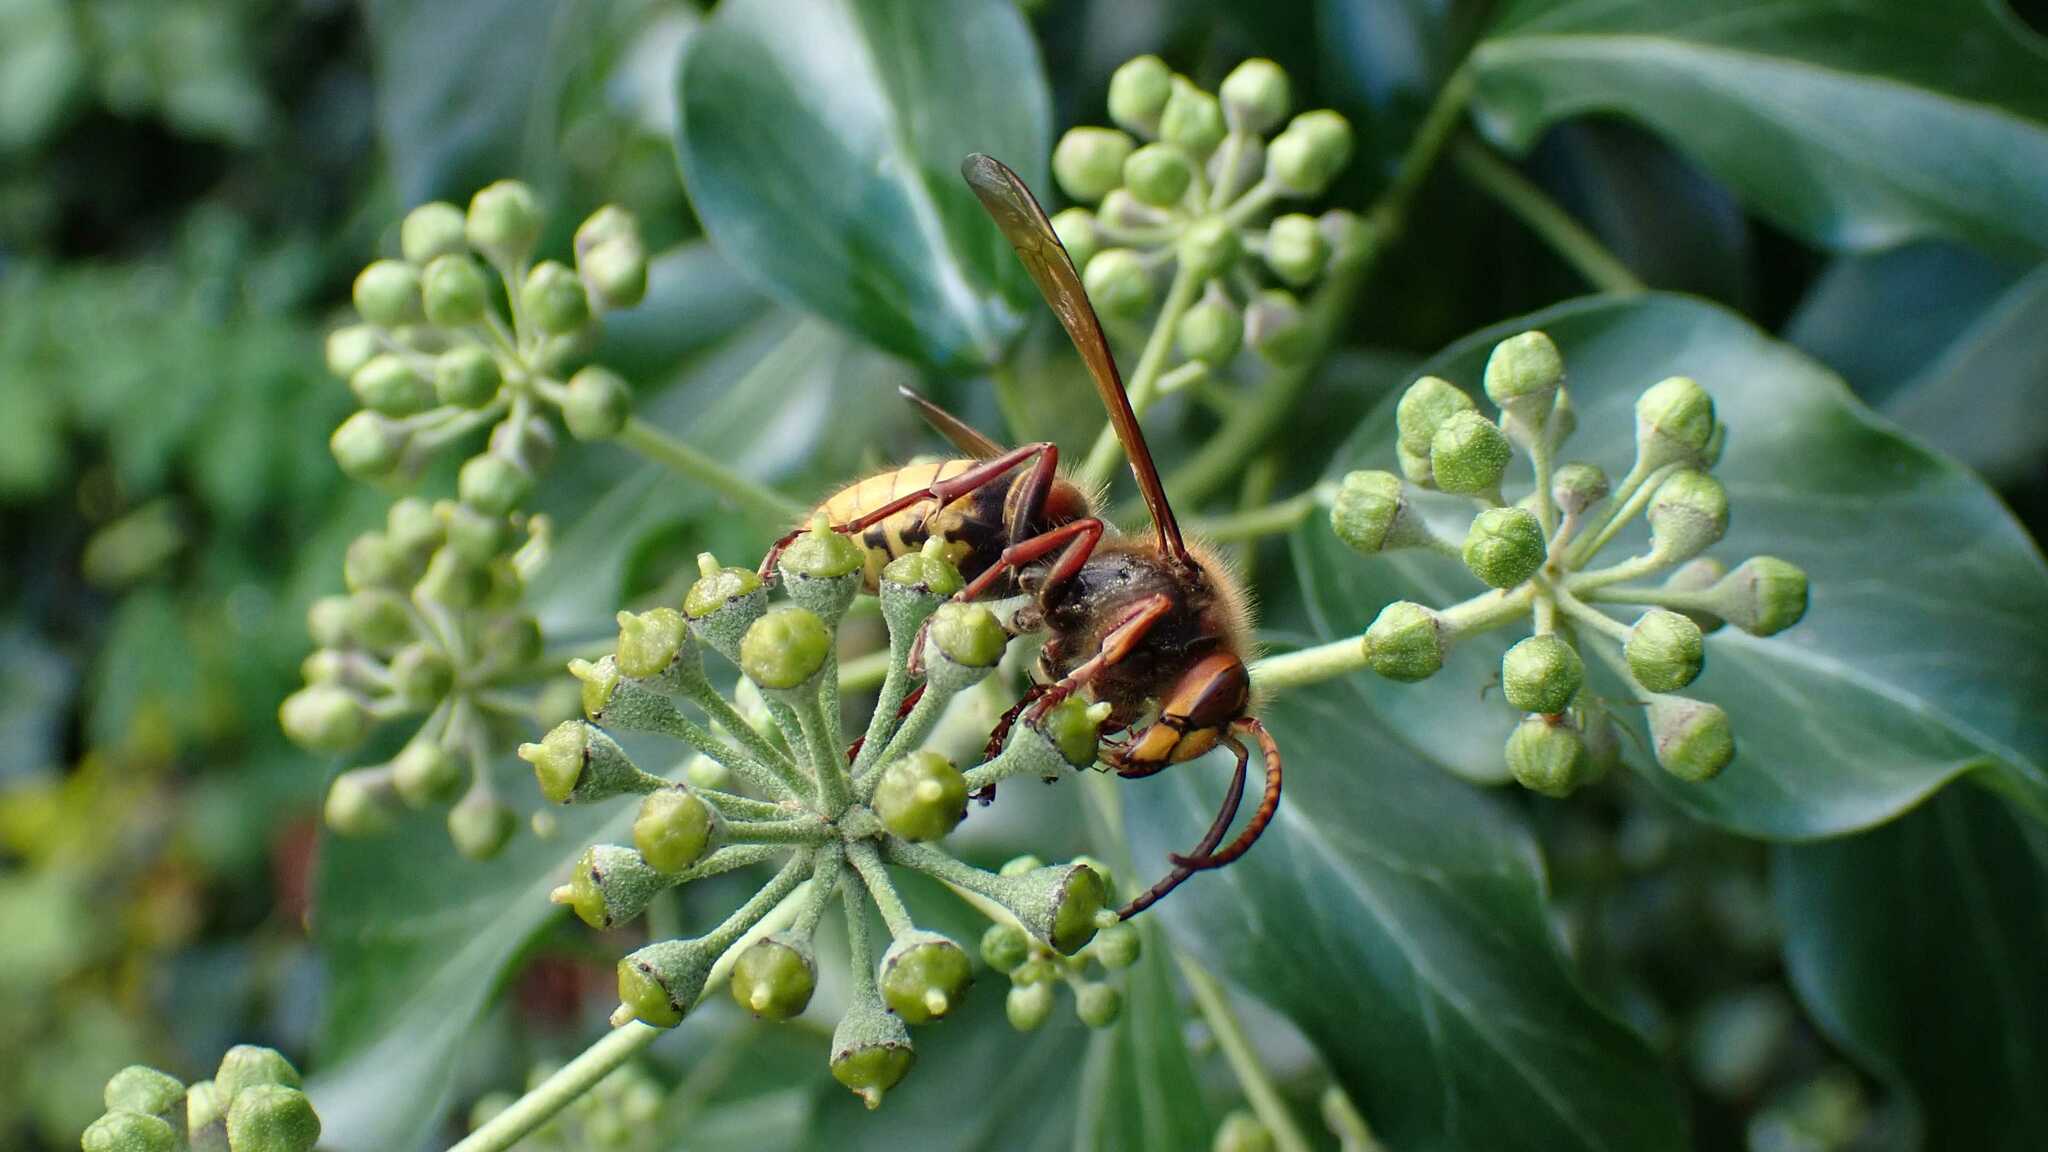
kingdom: Animalia
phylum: Arthropoda
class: Insecta
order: Hymenoptera
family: Vespidae
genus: Vespa
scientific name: Vespa crabro
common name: Hornet
